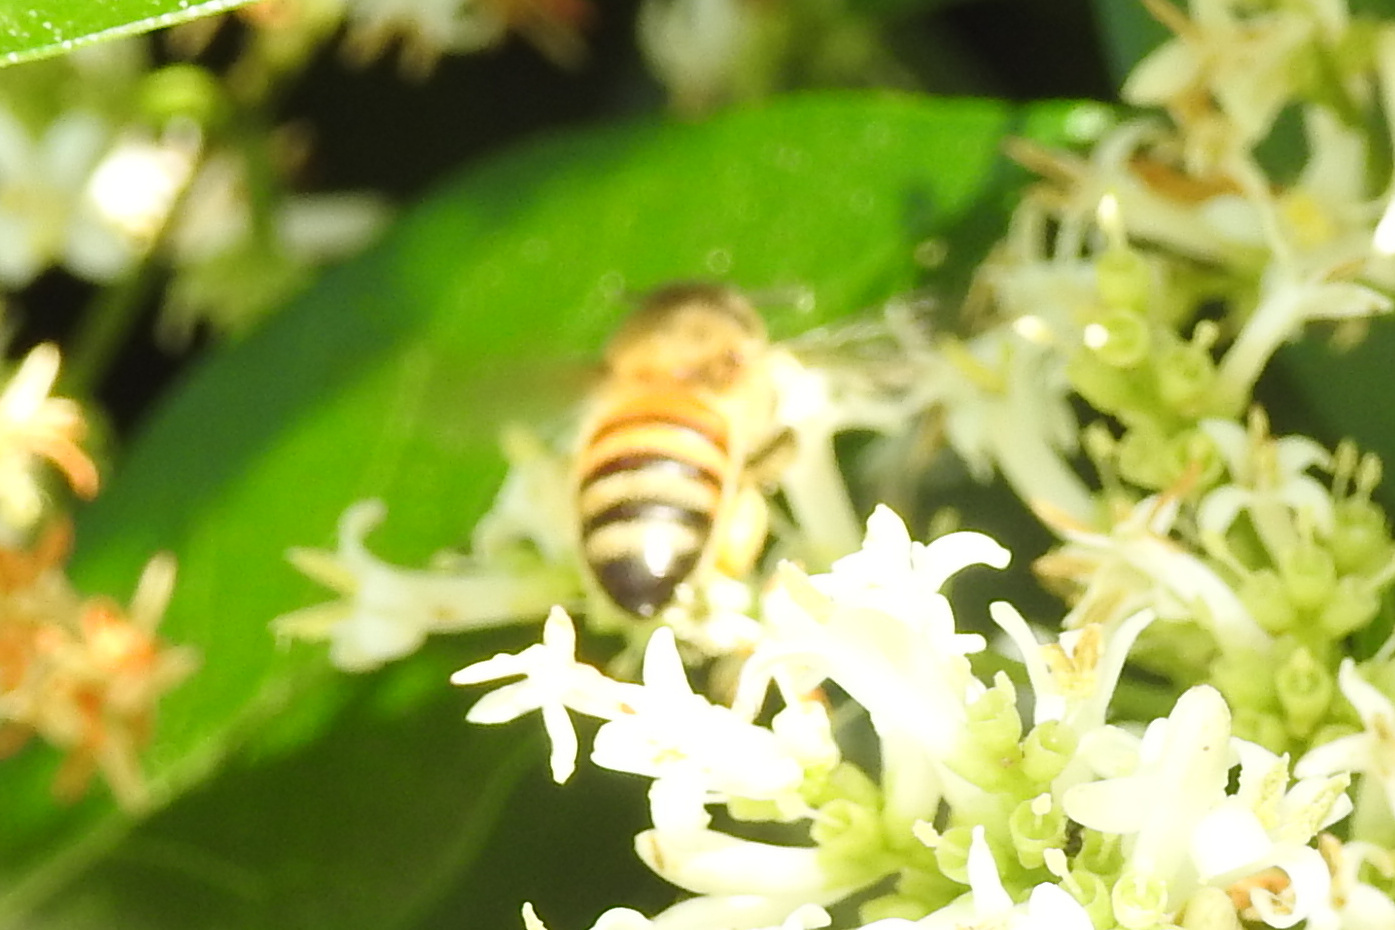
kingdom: Animalia
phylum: Arthropoda
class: Insecta
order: Hymenoptera
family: Apidae
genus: Apis
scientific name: Apis mellifera
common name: Honey bee
